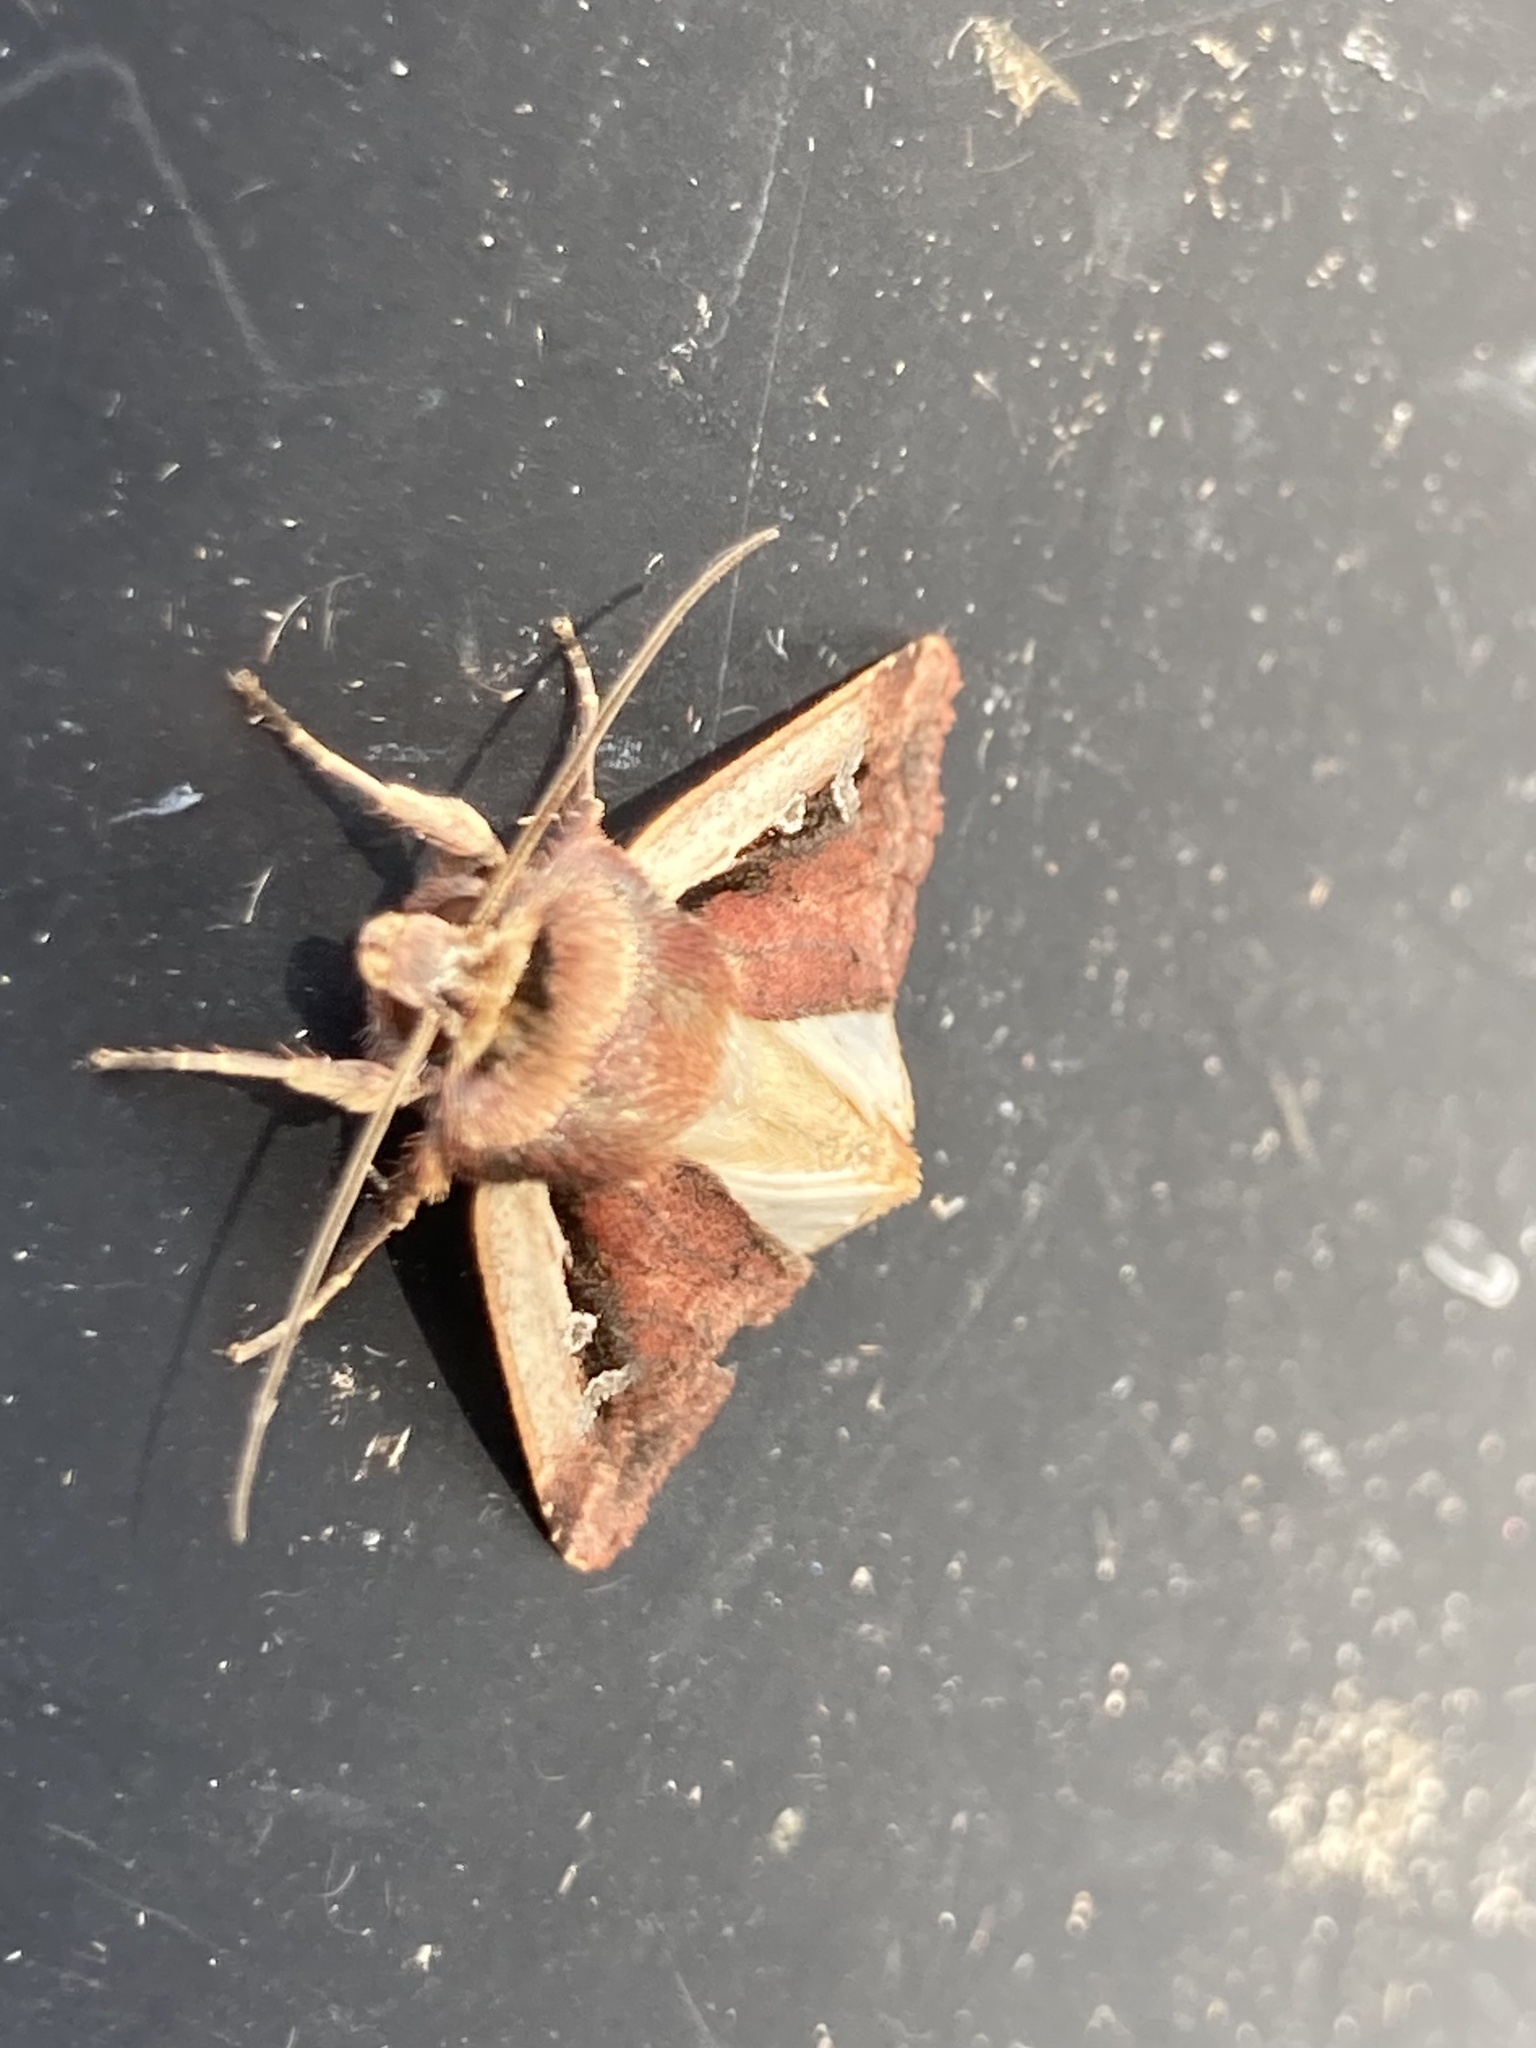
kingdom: Animalia
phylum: Arthropoda
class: Insecta
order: Lepidoptera
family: Noctuidae
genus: Ochropleura
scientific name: Ochropleura plecta
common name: Flame shoulder
